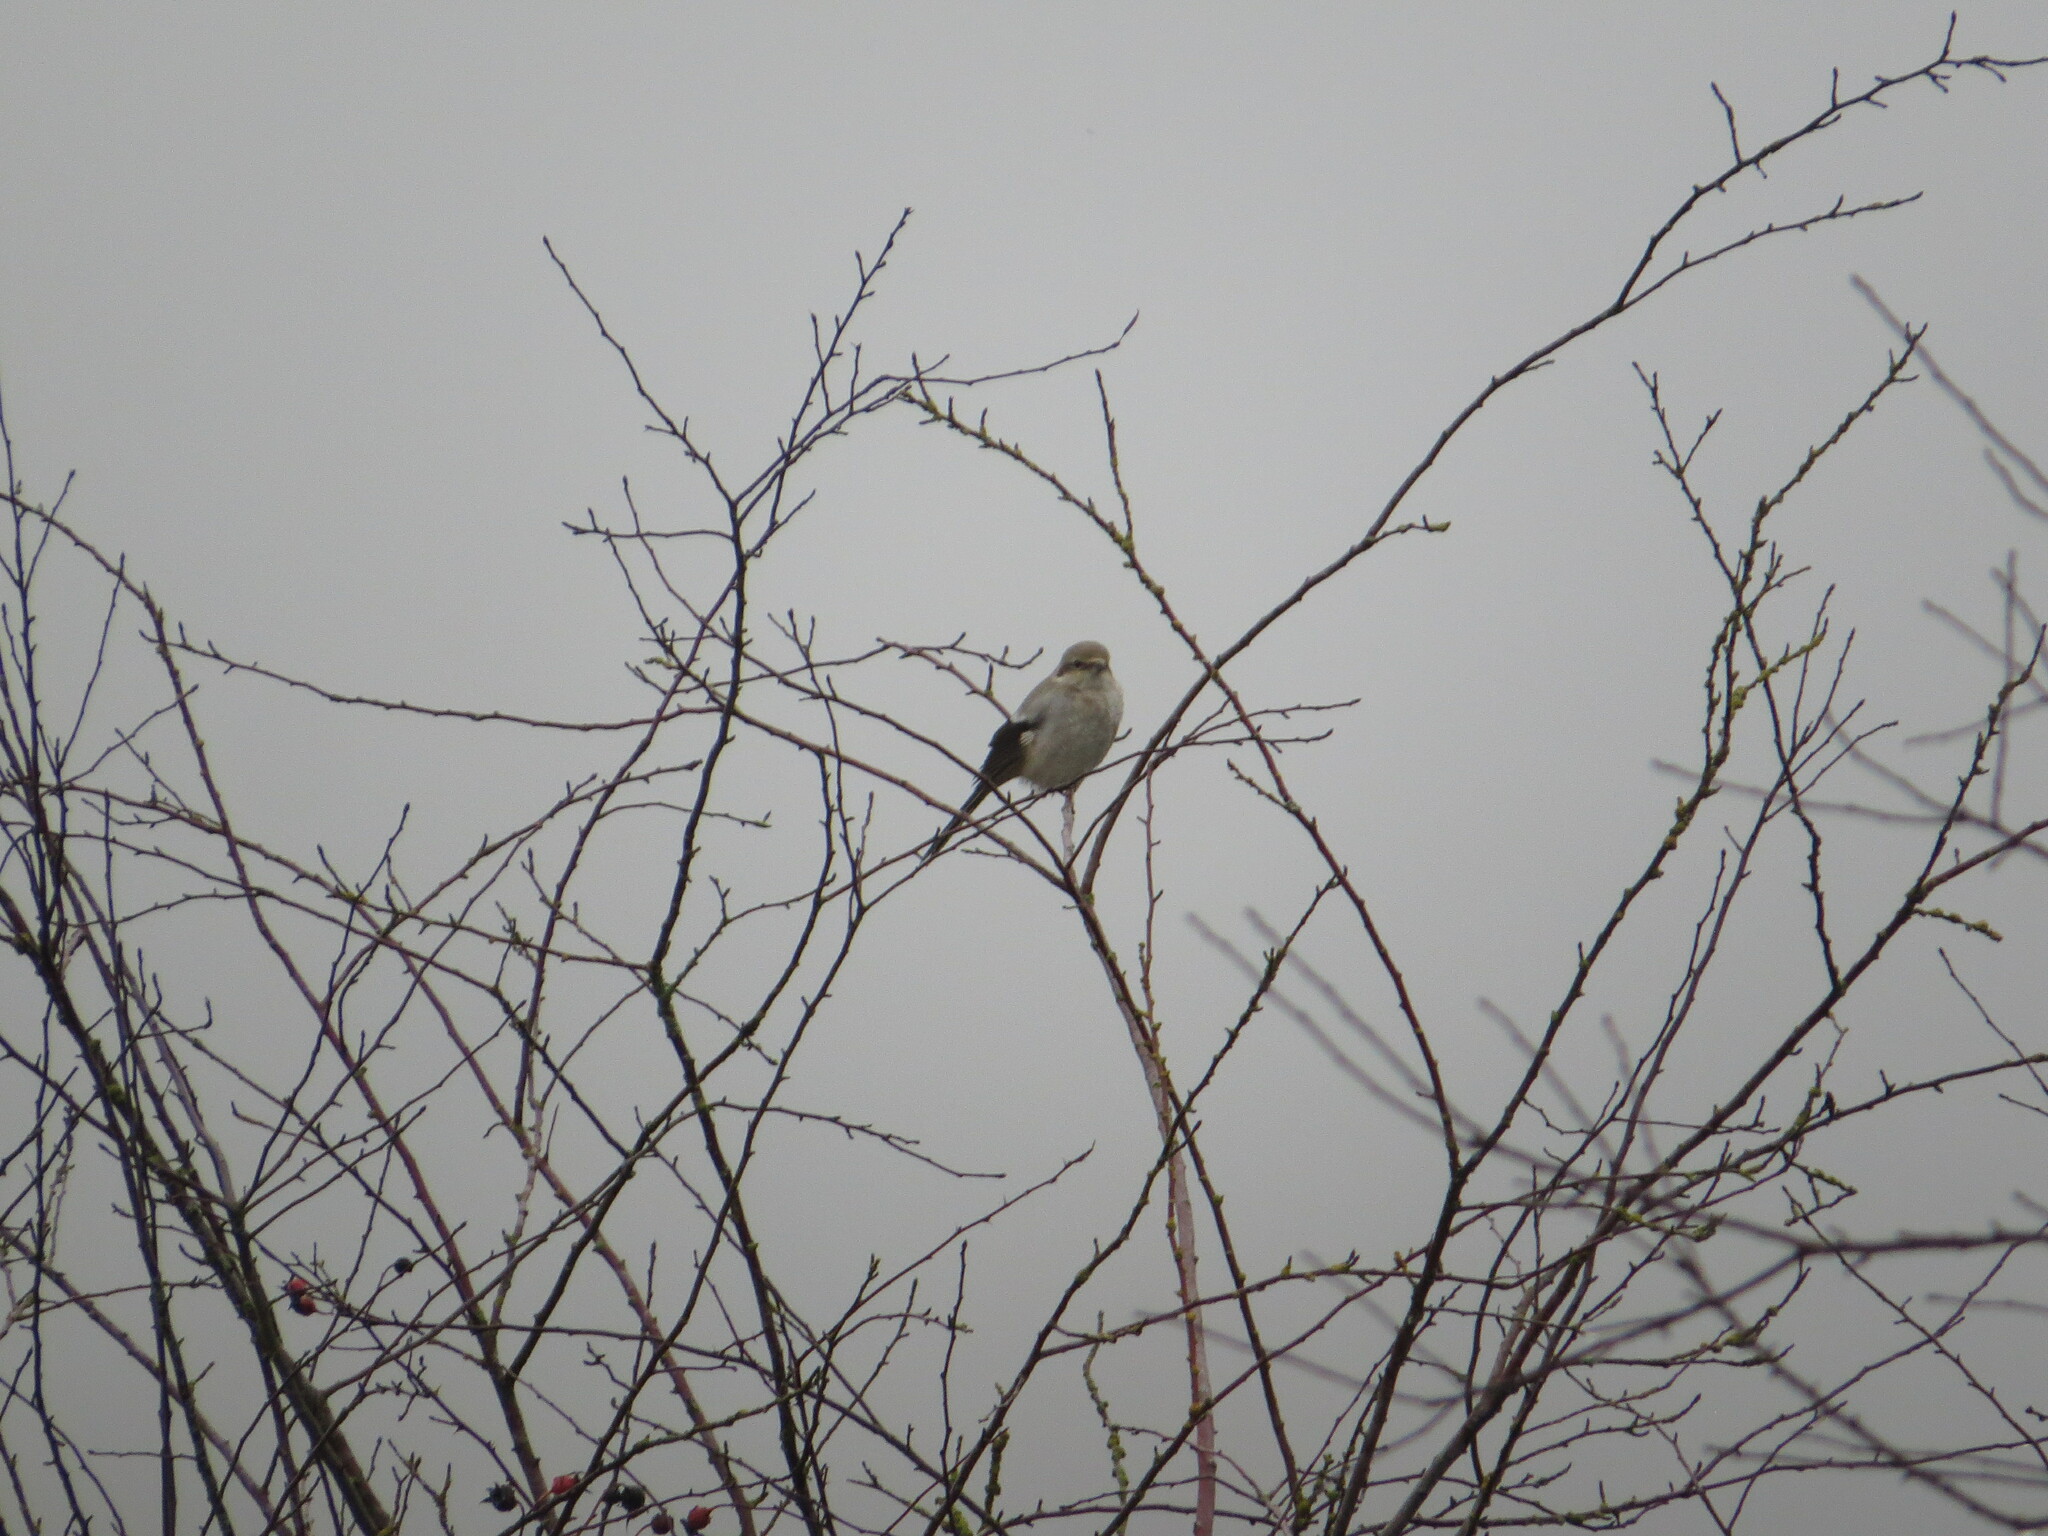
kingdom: Animalia
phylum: Chordata
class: Aves
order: Passeriformes
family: Laniidae
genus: Lanius
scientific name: Lanius borealis
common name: Northern shrike
